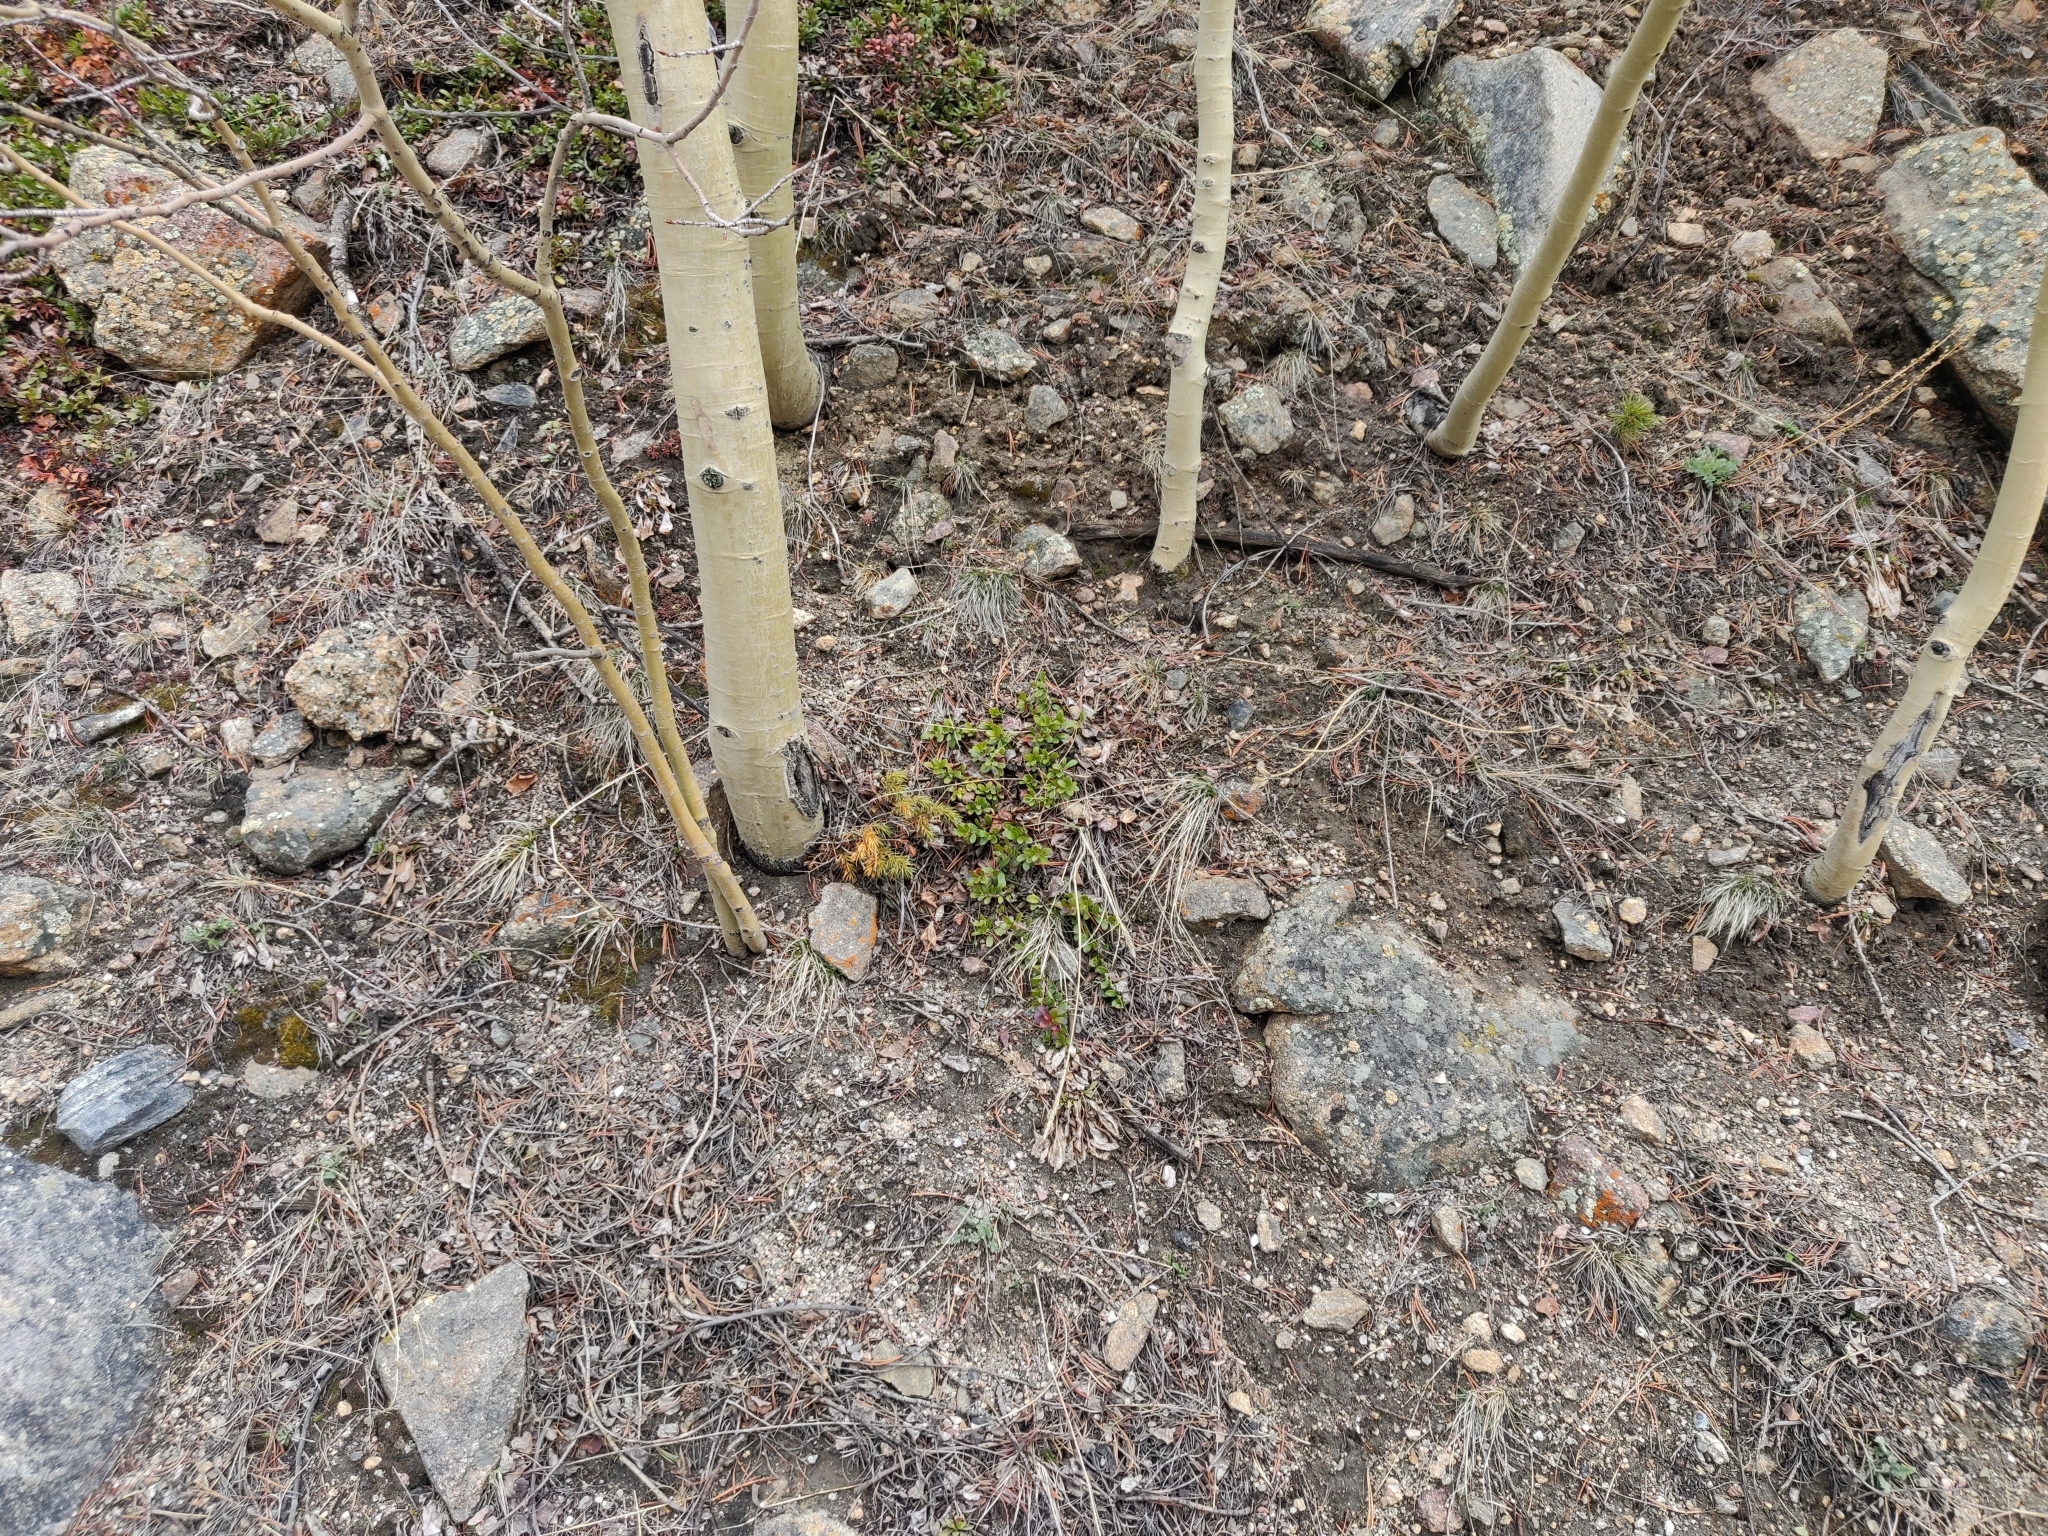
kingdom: Plantae
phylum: Tracheophyta
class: Magnoliopsida
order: Ericales
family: Ericaceae
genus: Arctostaphylos
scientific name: Arctostaphylos uva-ursi
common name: Bearberry
